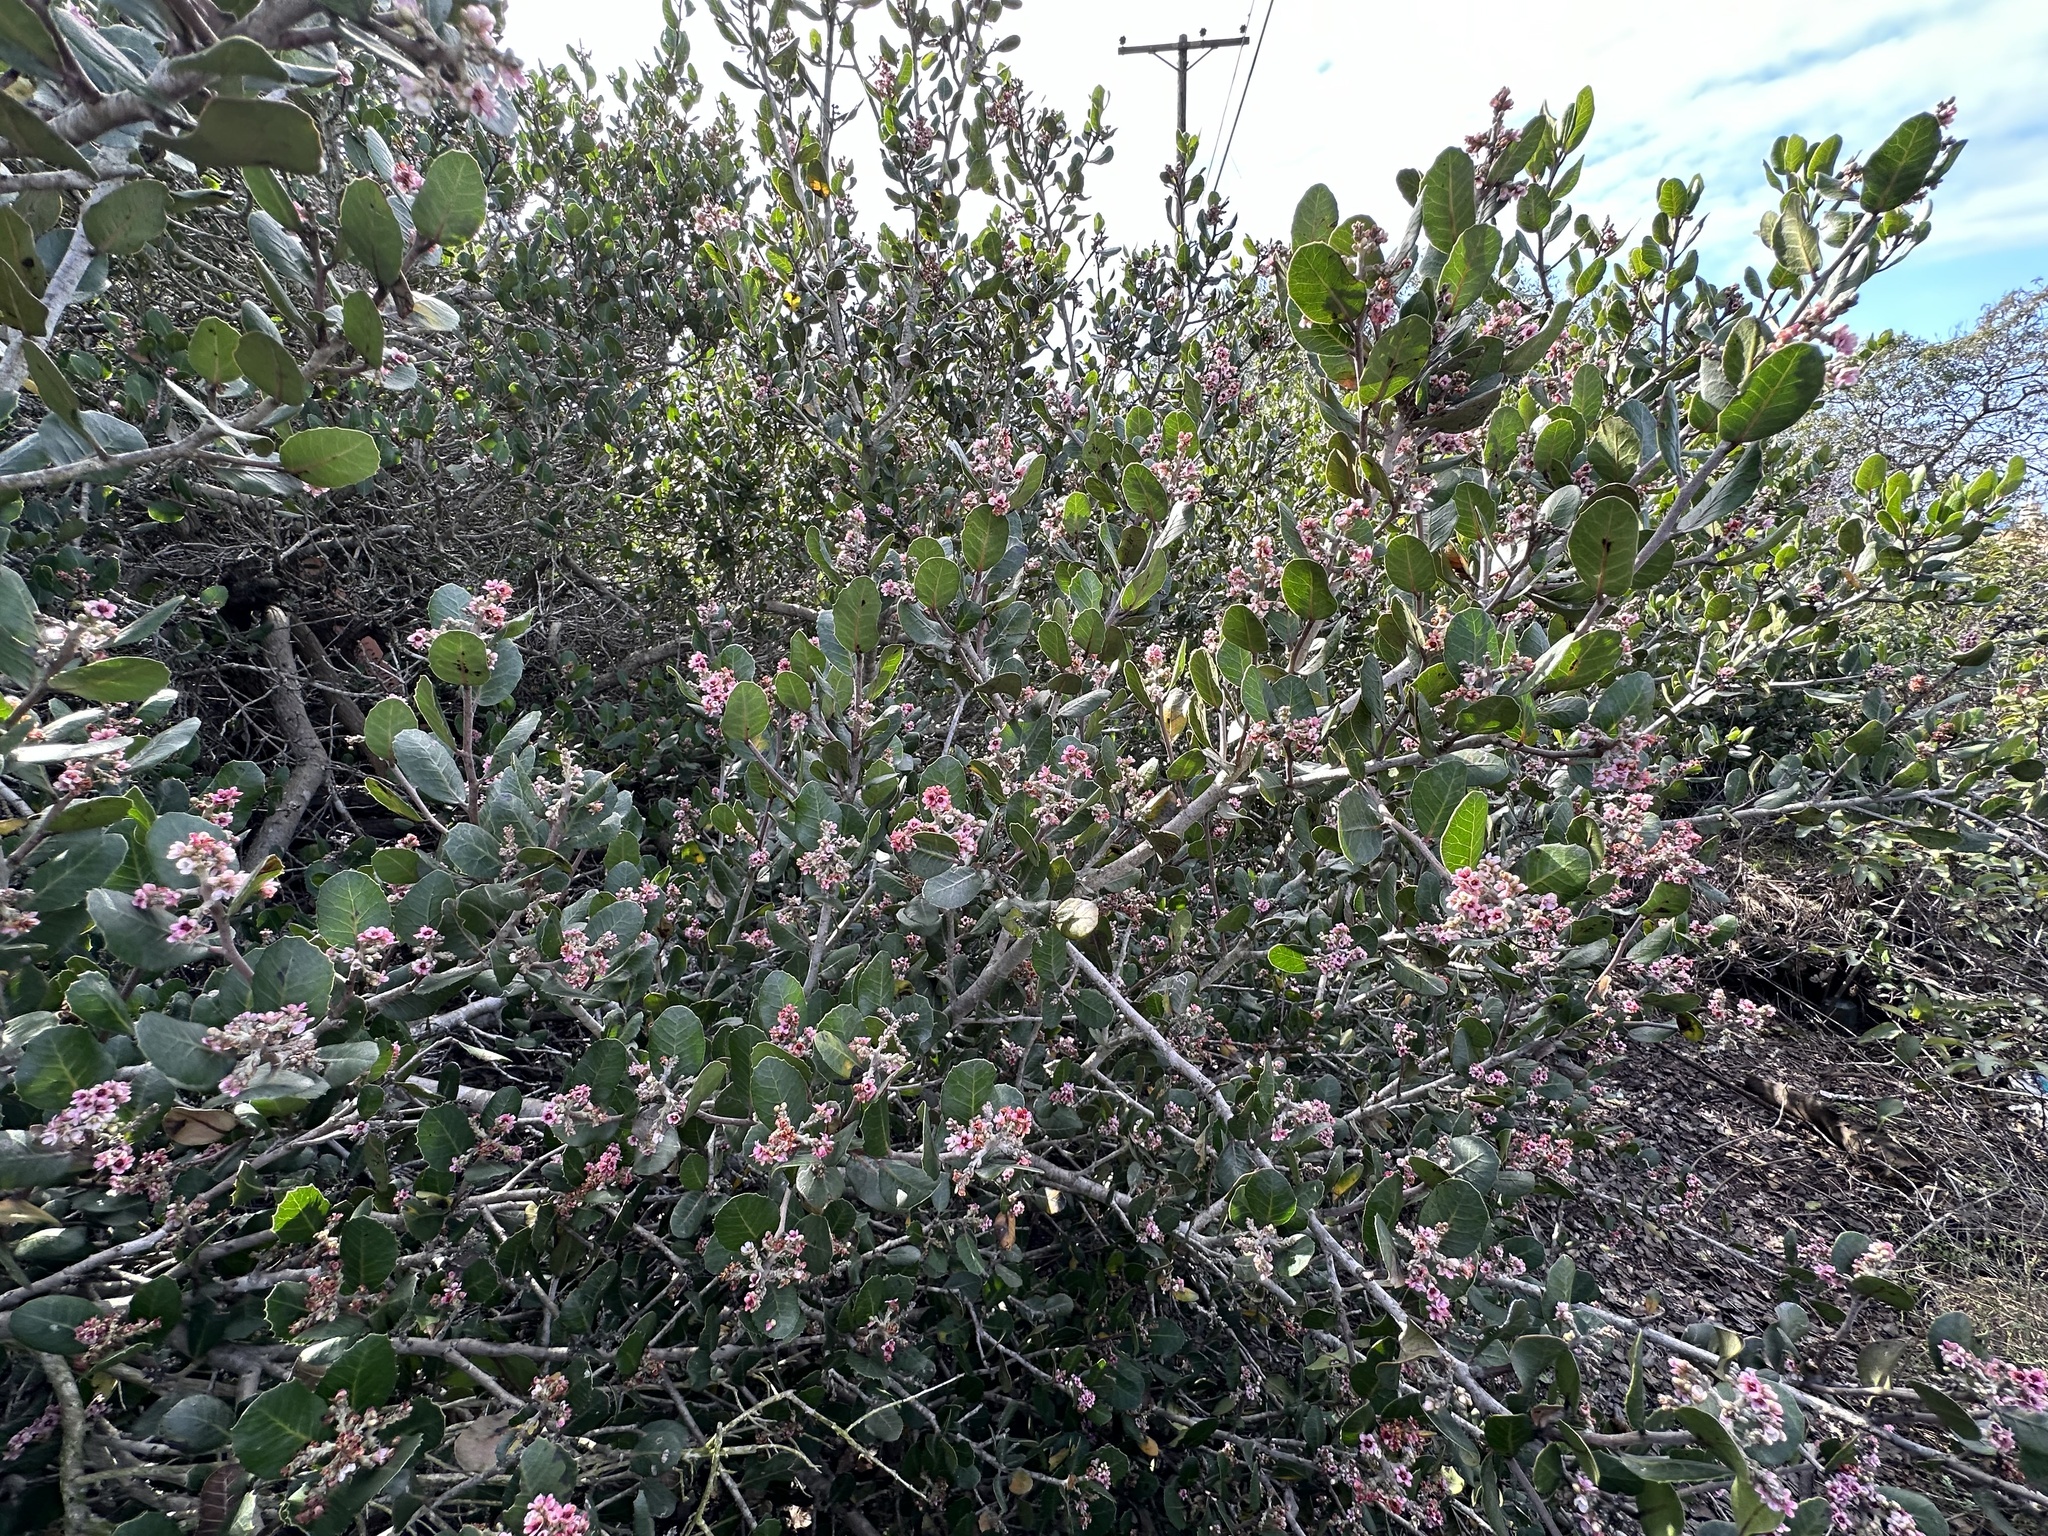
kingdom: Plantae
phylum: Tracheophyta
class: Magnoliopsida
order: Sapindales
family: Anacardiaceae
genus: Rhus
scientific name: Rhus integrifolia
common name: Lemonade sumac
